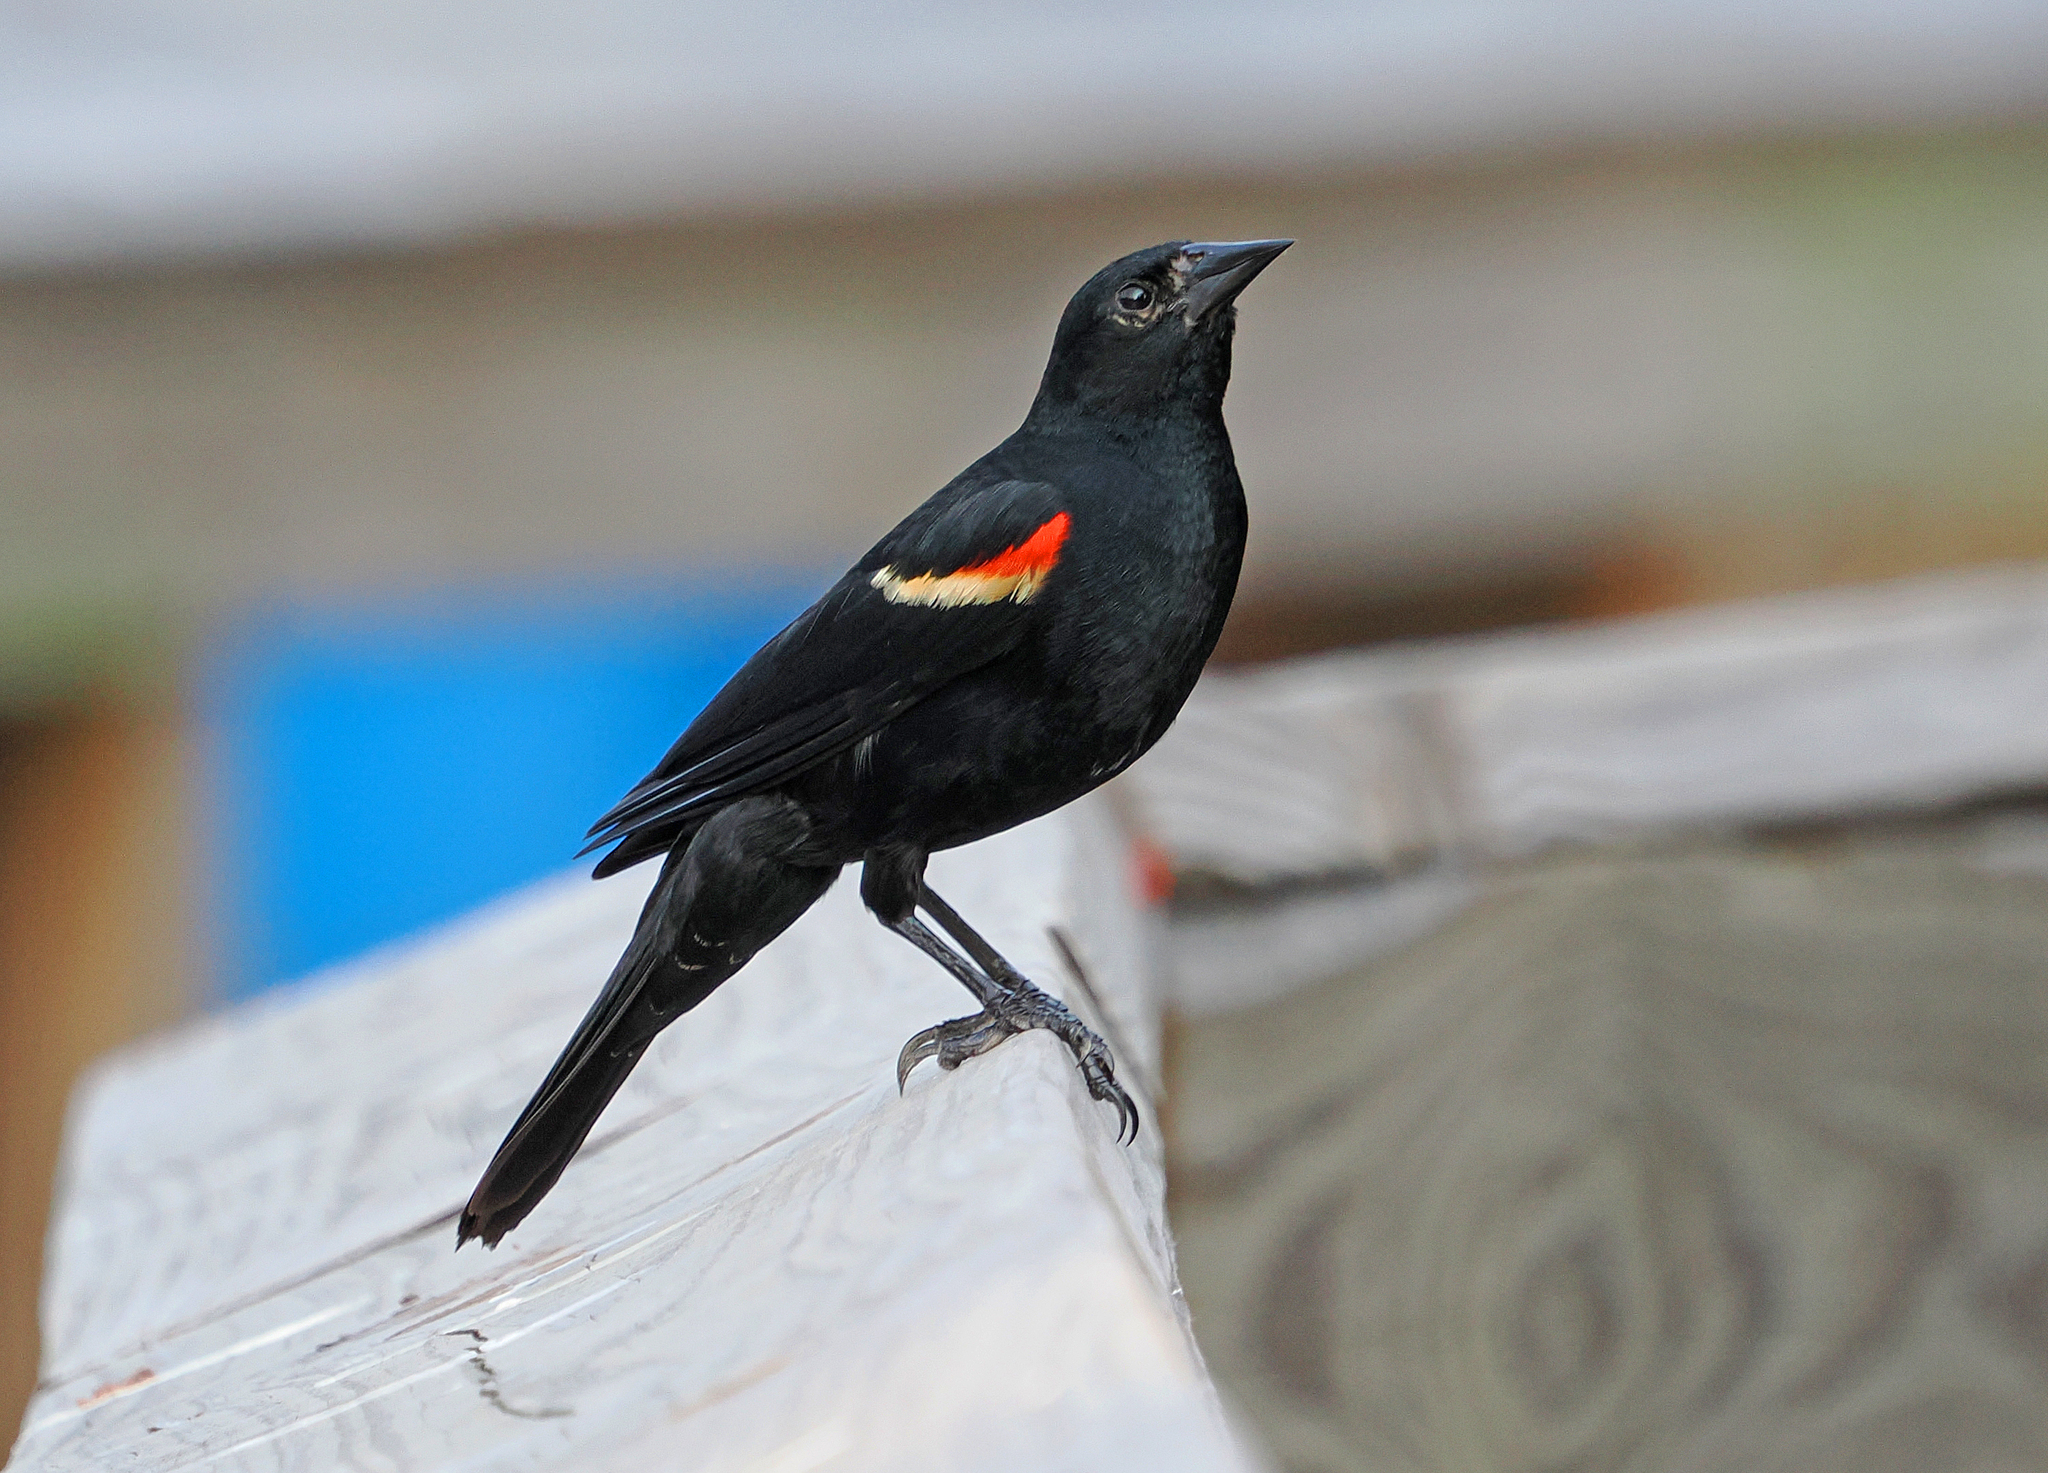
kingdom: Animalia
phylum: Chordata
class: Aves
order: Passeriformes
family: Icteridae
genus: Agelaius
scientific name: Agelaius phoeniceus
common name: Red-winged blackbird
